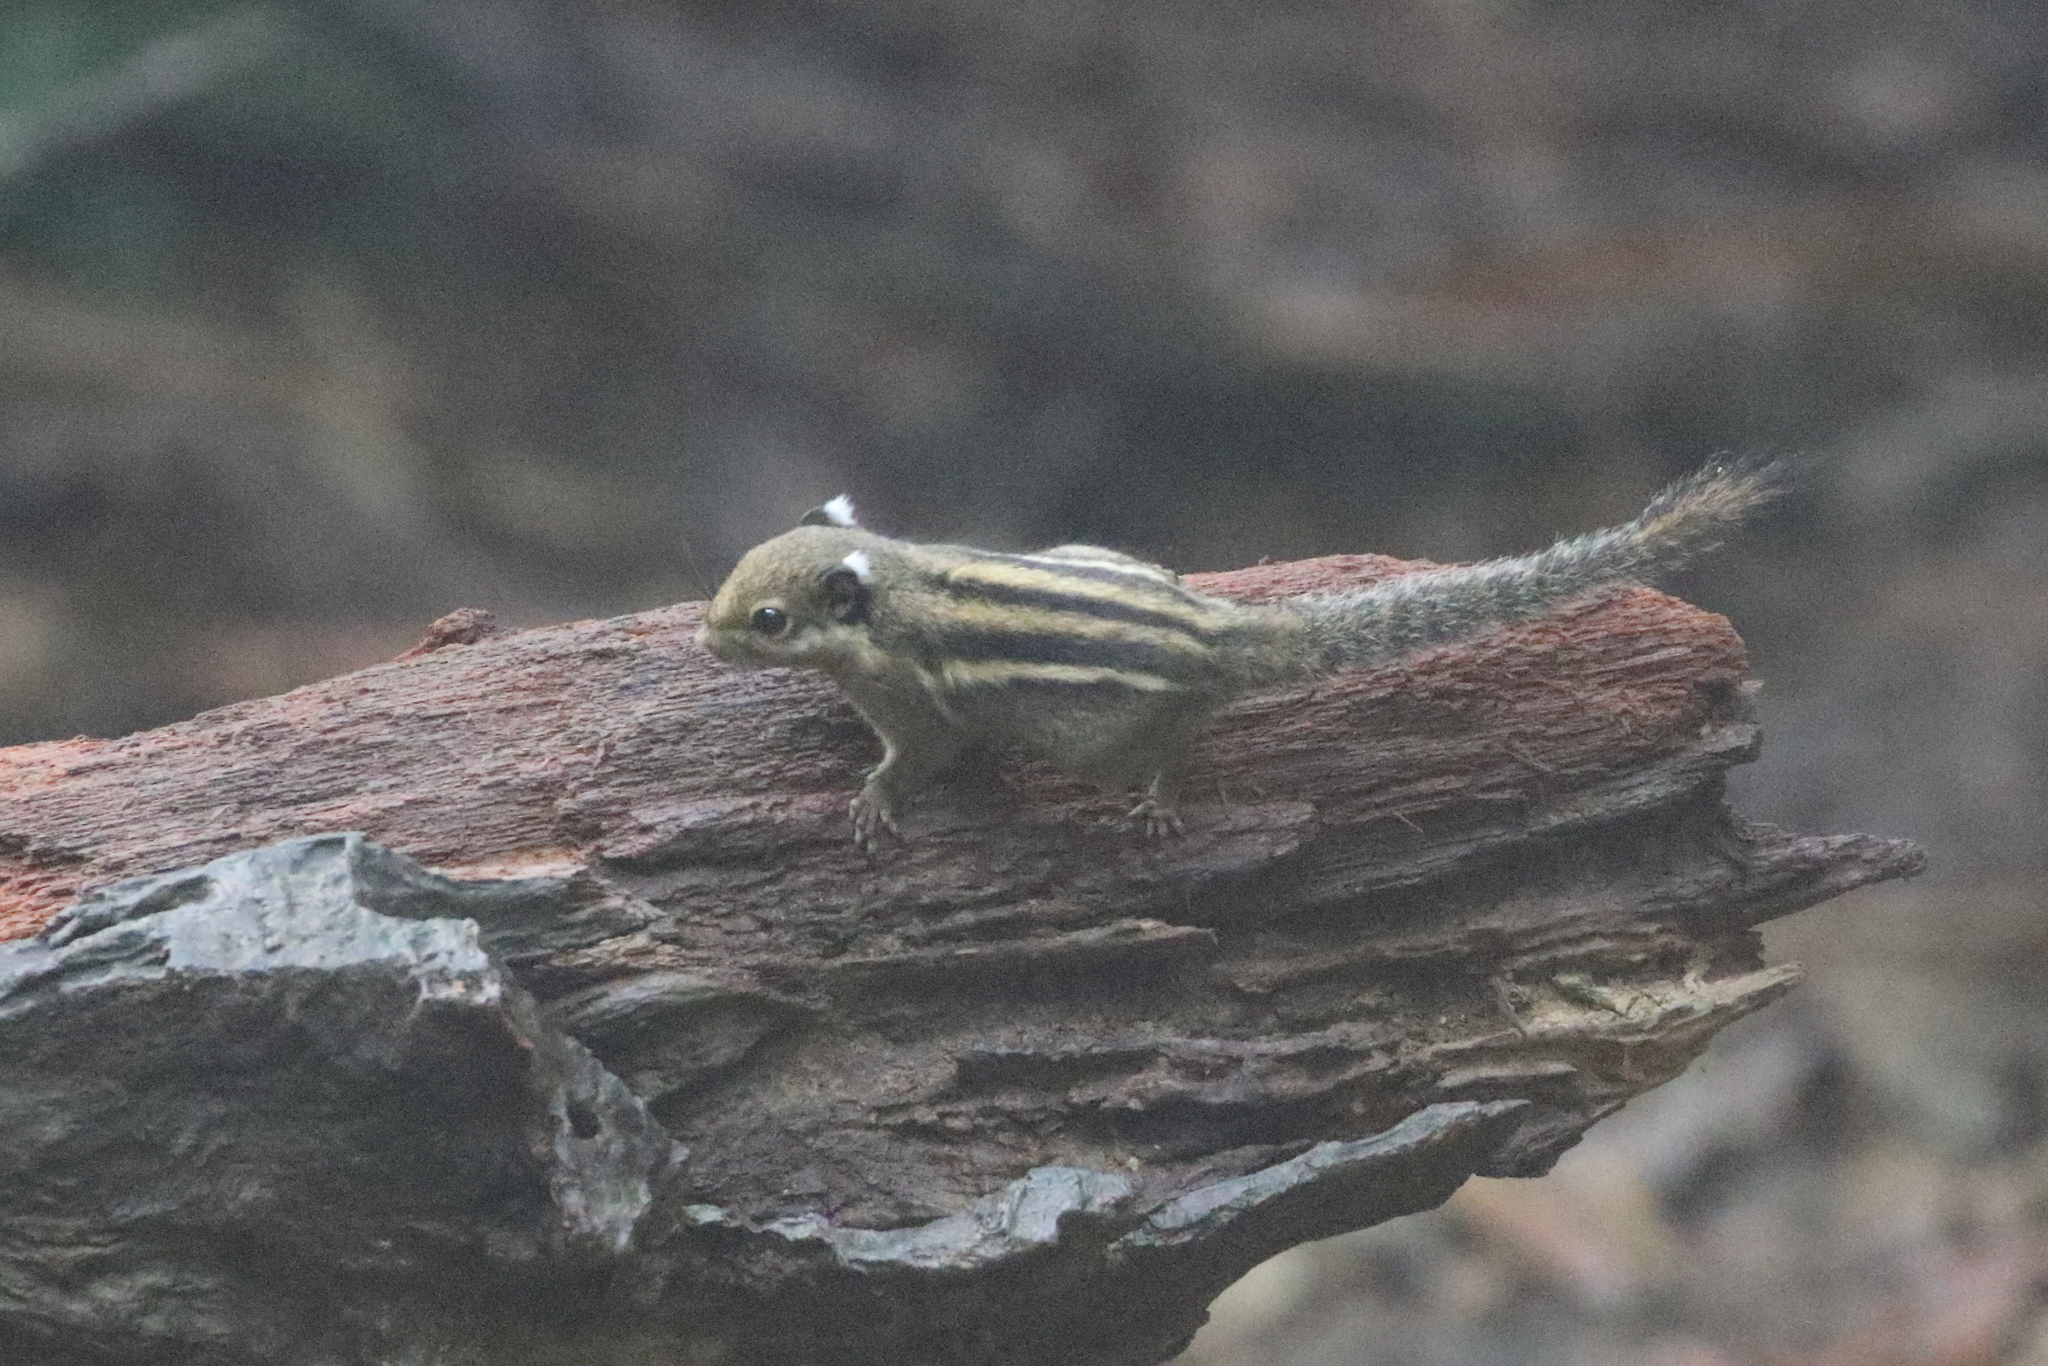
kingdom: Animalia
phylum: Chordata
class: Mammalia
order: Rodentia
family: Sciuridae
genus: Tamiops
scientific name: Tamiops mcclellandii
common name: Himalayan striped squirrel
